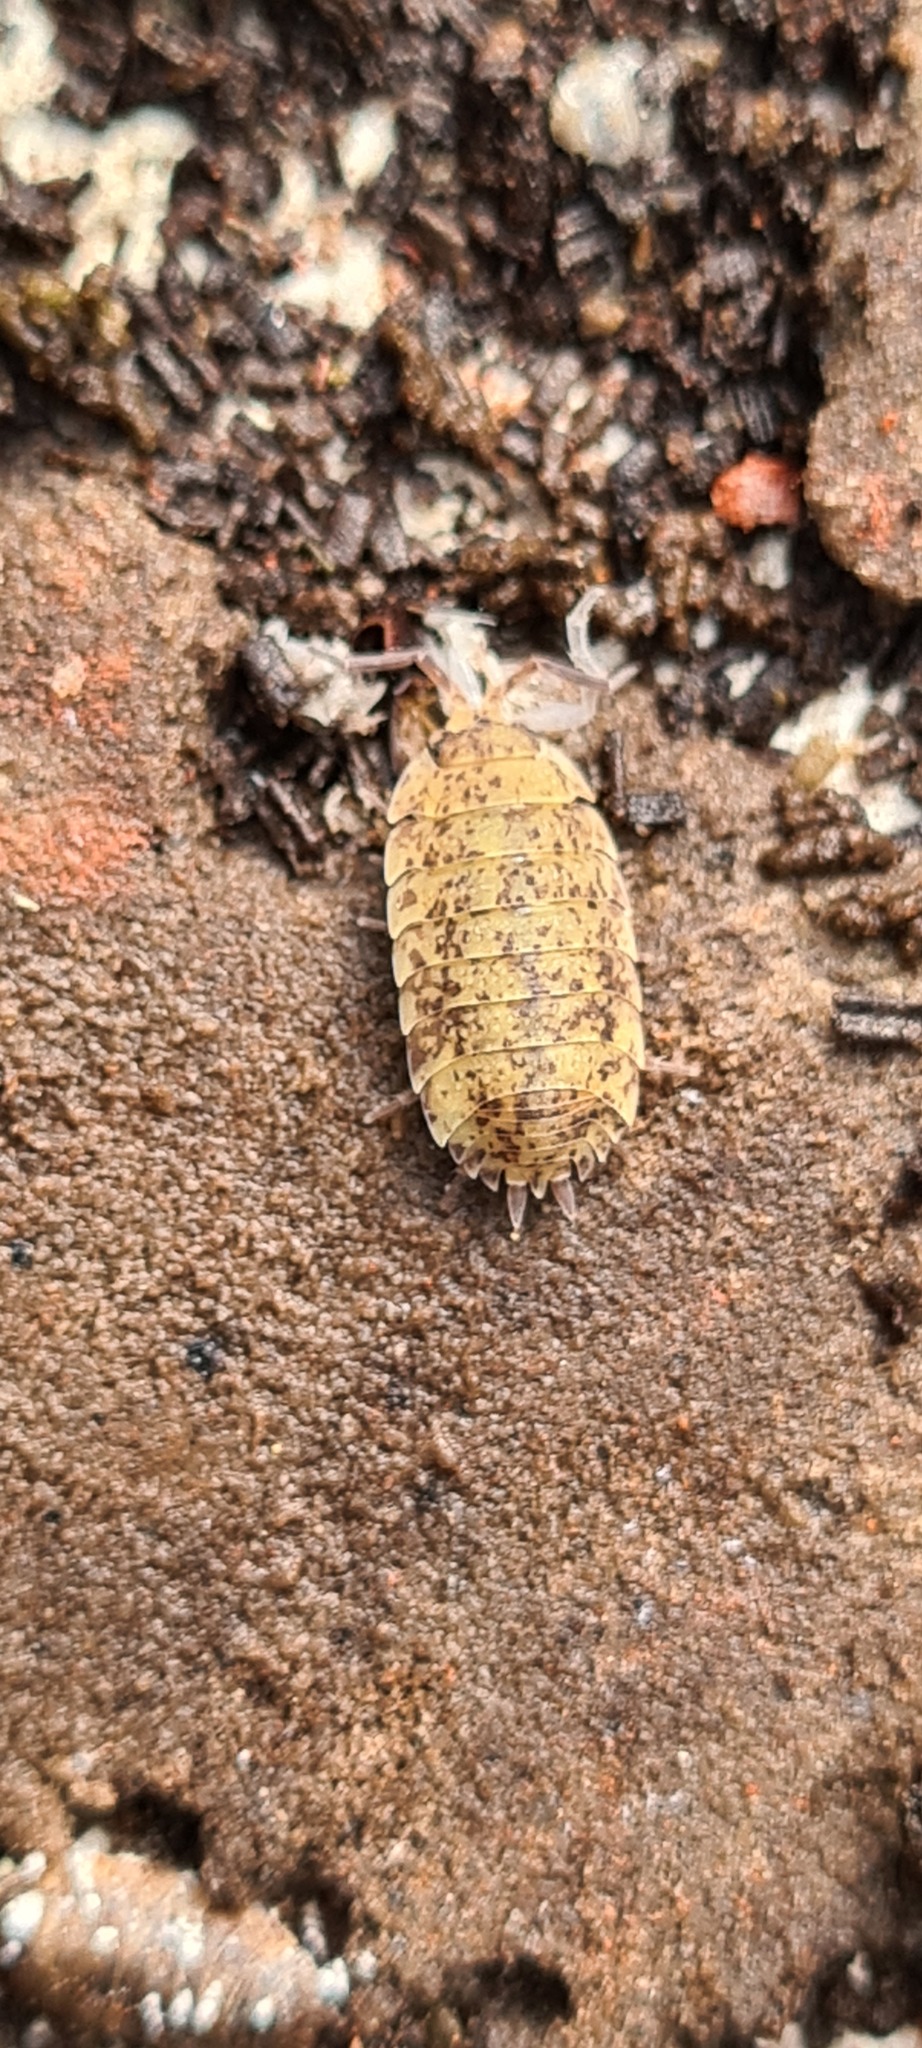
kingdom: Animalia
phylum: Arthropoda
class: Malacostraca
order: Isopoda
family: Porcellionidae
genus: Porcellio
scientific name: Porcellio scaber
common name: Common rough woodlouse
